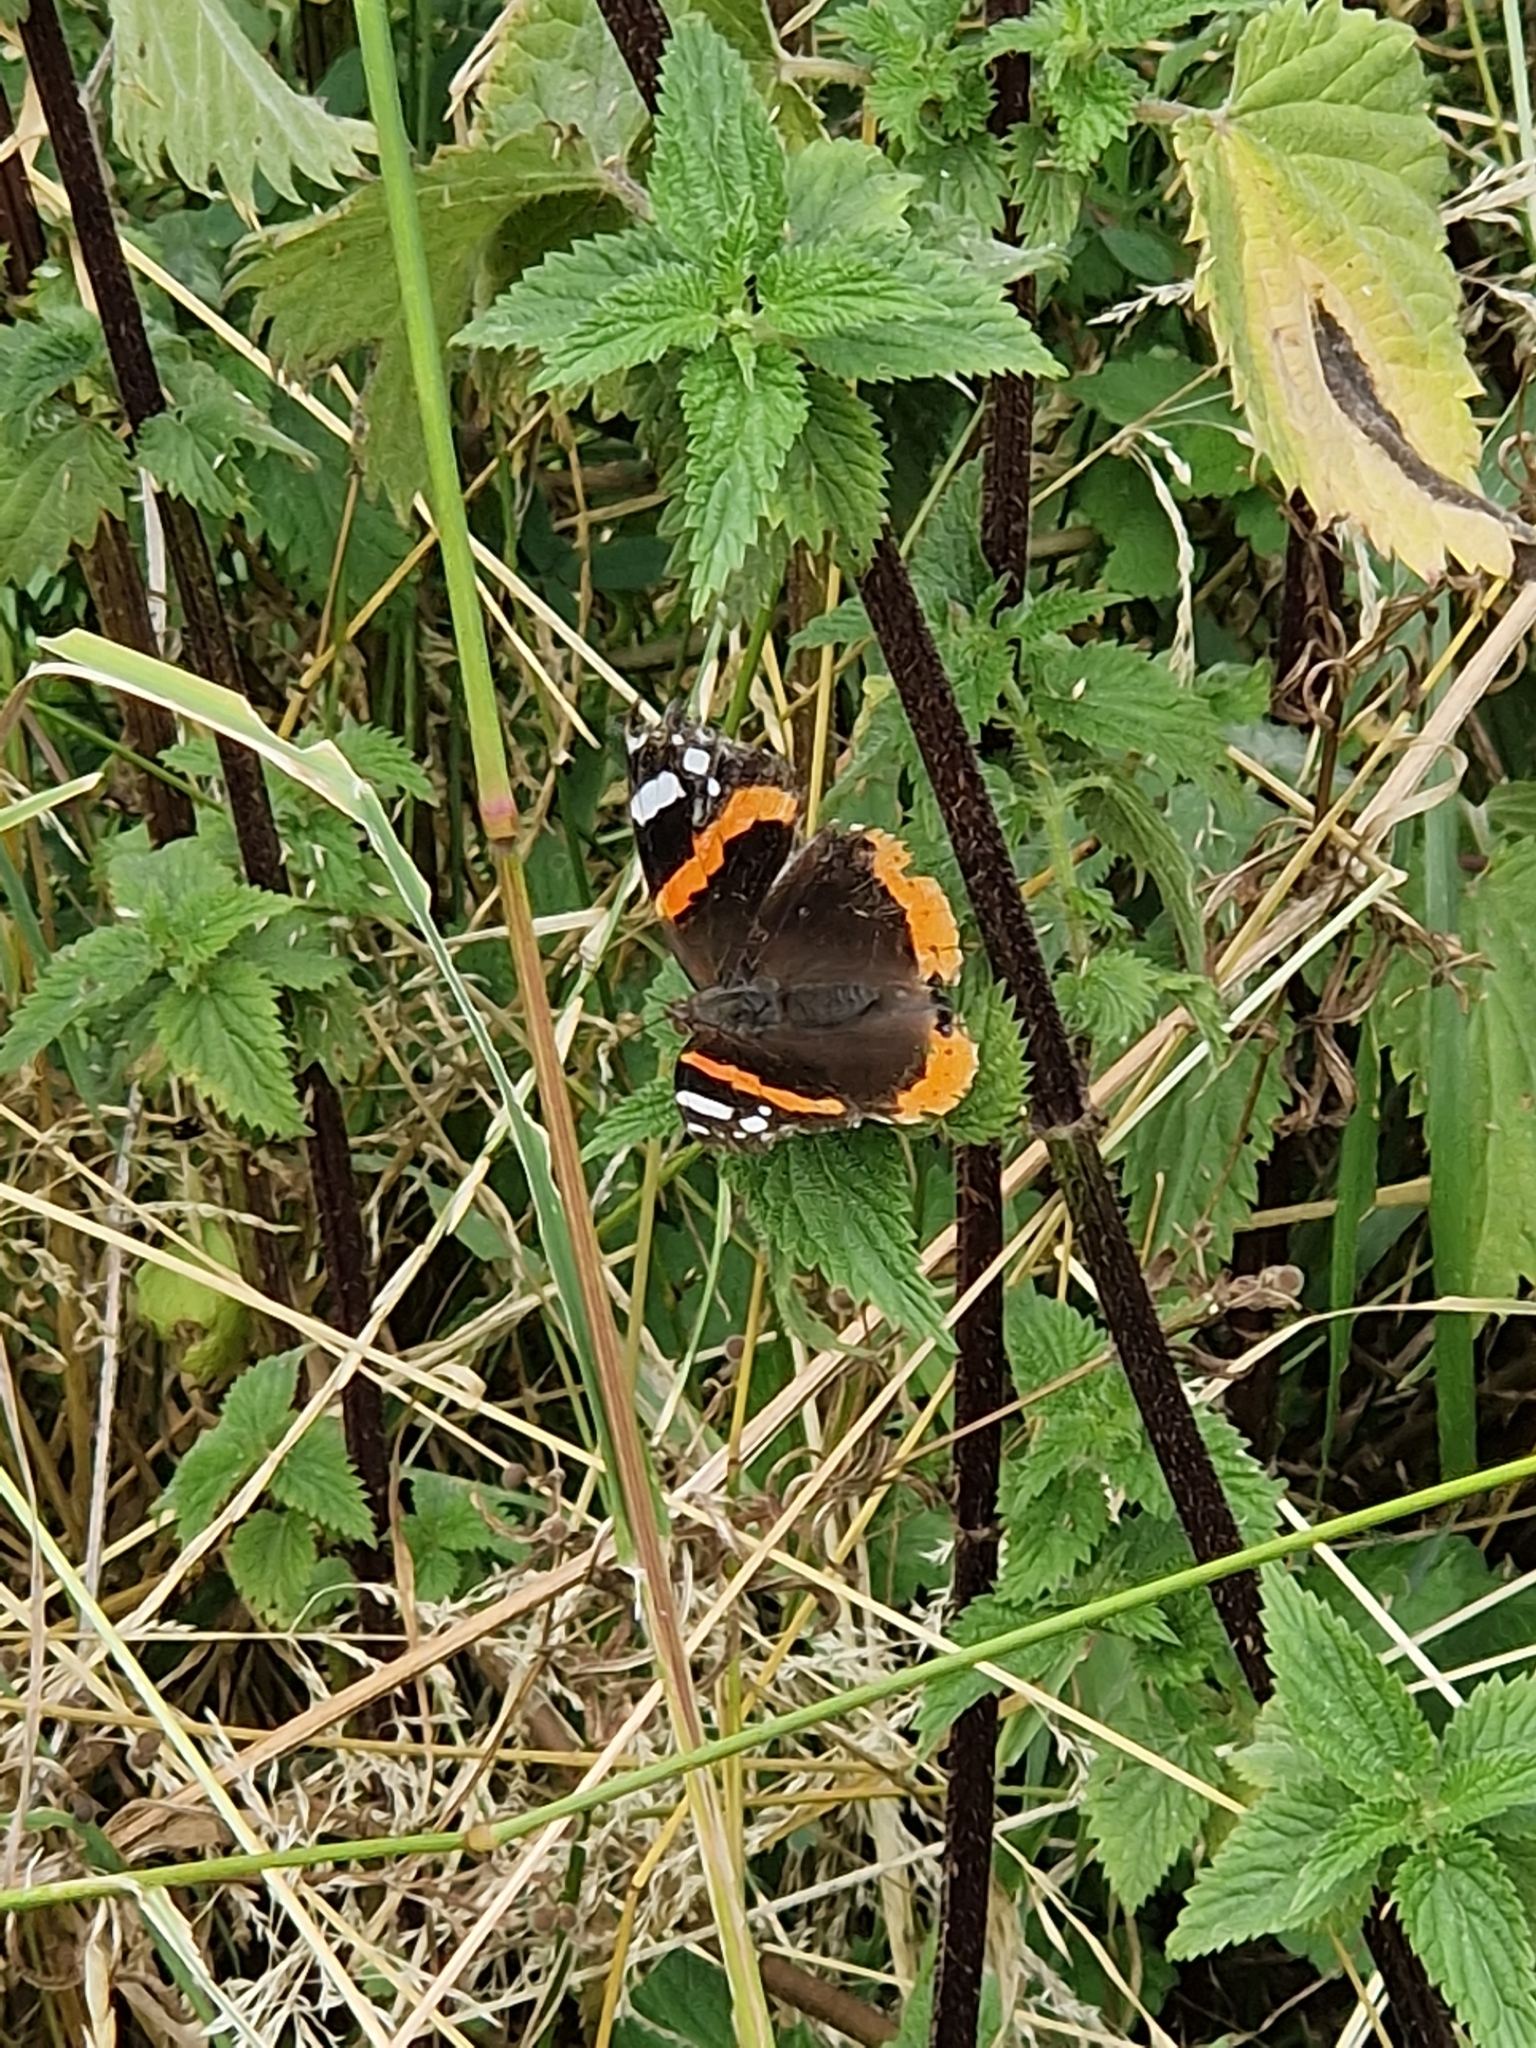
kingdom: Animalia
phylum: Arthropoda
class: Insecta
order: Lepidoptera
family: Nymphalidae
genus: Vanessa
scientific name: Vanessa atalanta
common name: Red admiral
